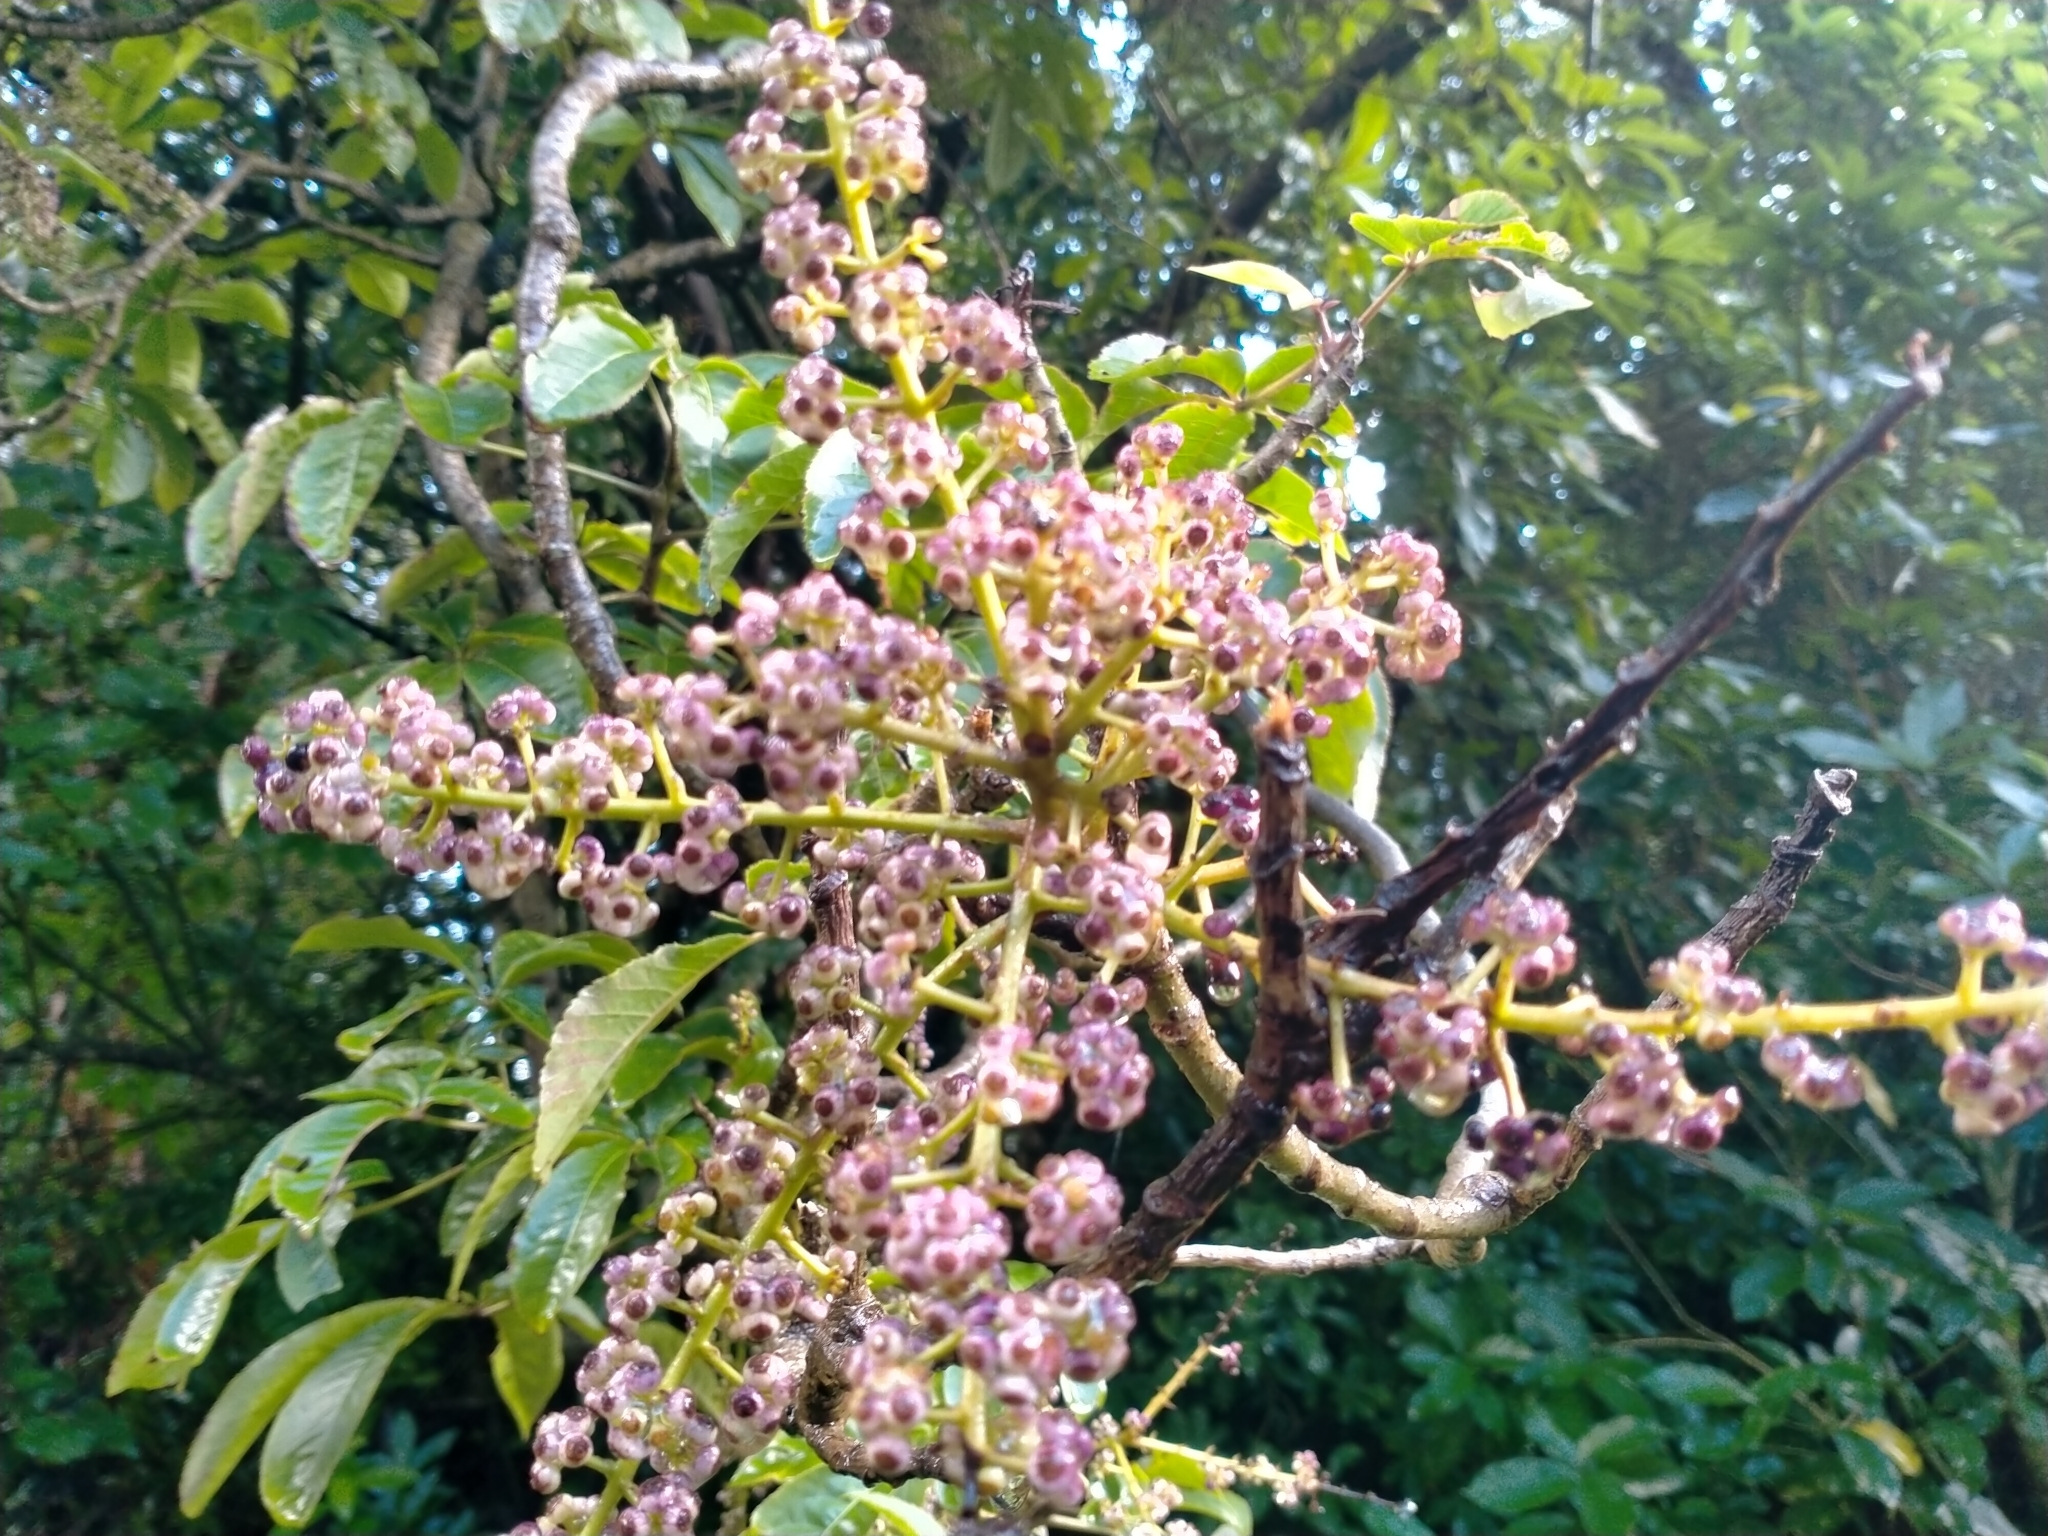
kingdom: Plantae
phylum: Tracheophyta
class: Magnoliopsida
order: Apiales
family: Araliaceae
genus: Schefflera
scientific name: Schefflera digitata
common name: Pate
